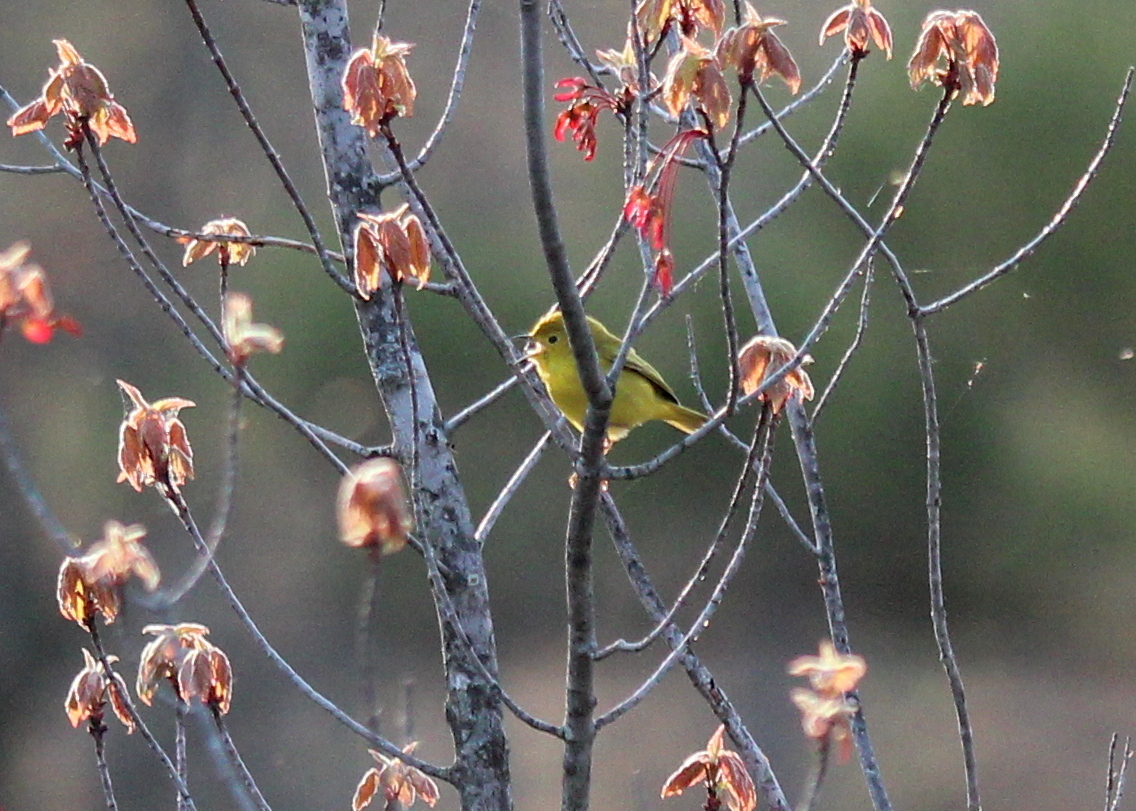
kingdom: Animalia
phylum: Chordata
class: Aves
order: Passeriformes
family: Parulidae
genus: Setophaga
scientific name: Setophaga petechia
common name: Yellow warbler
